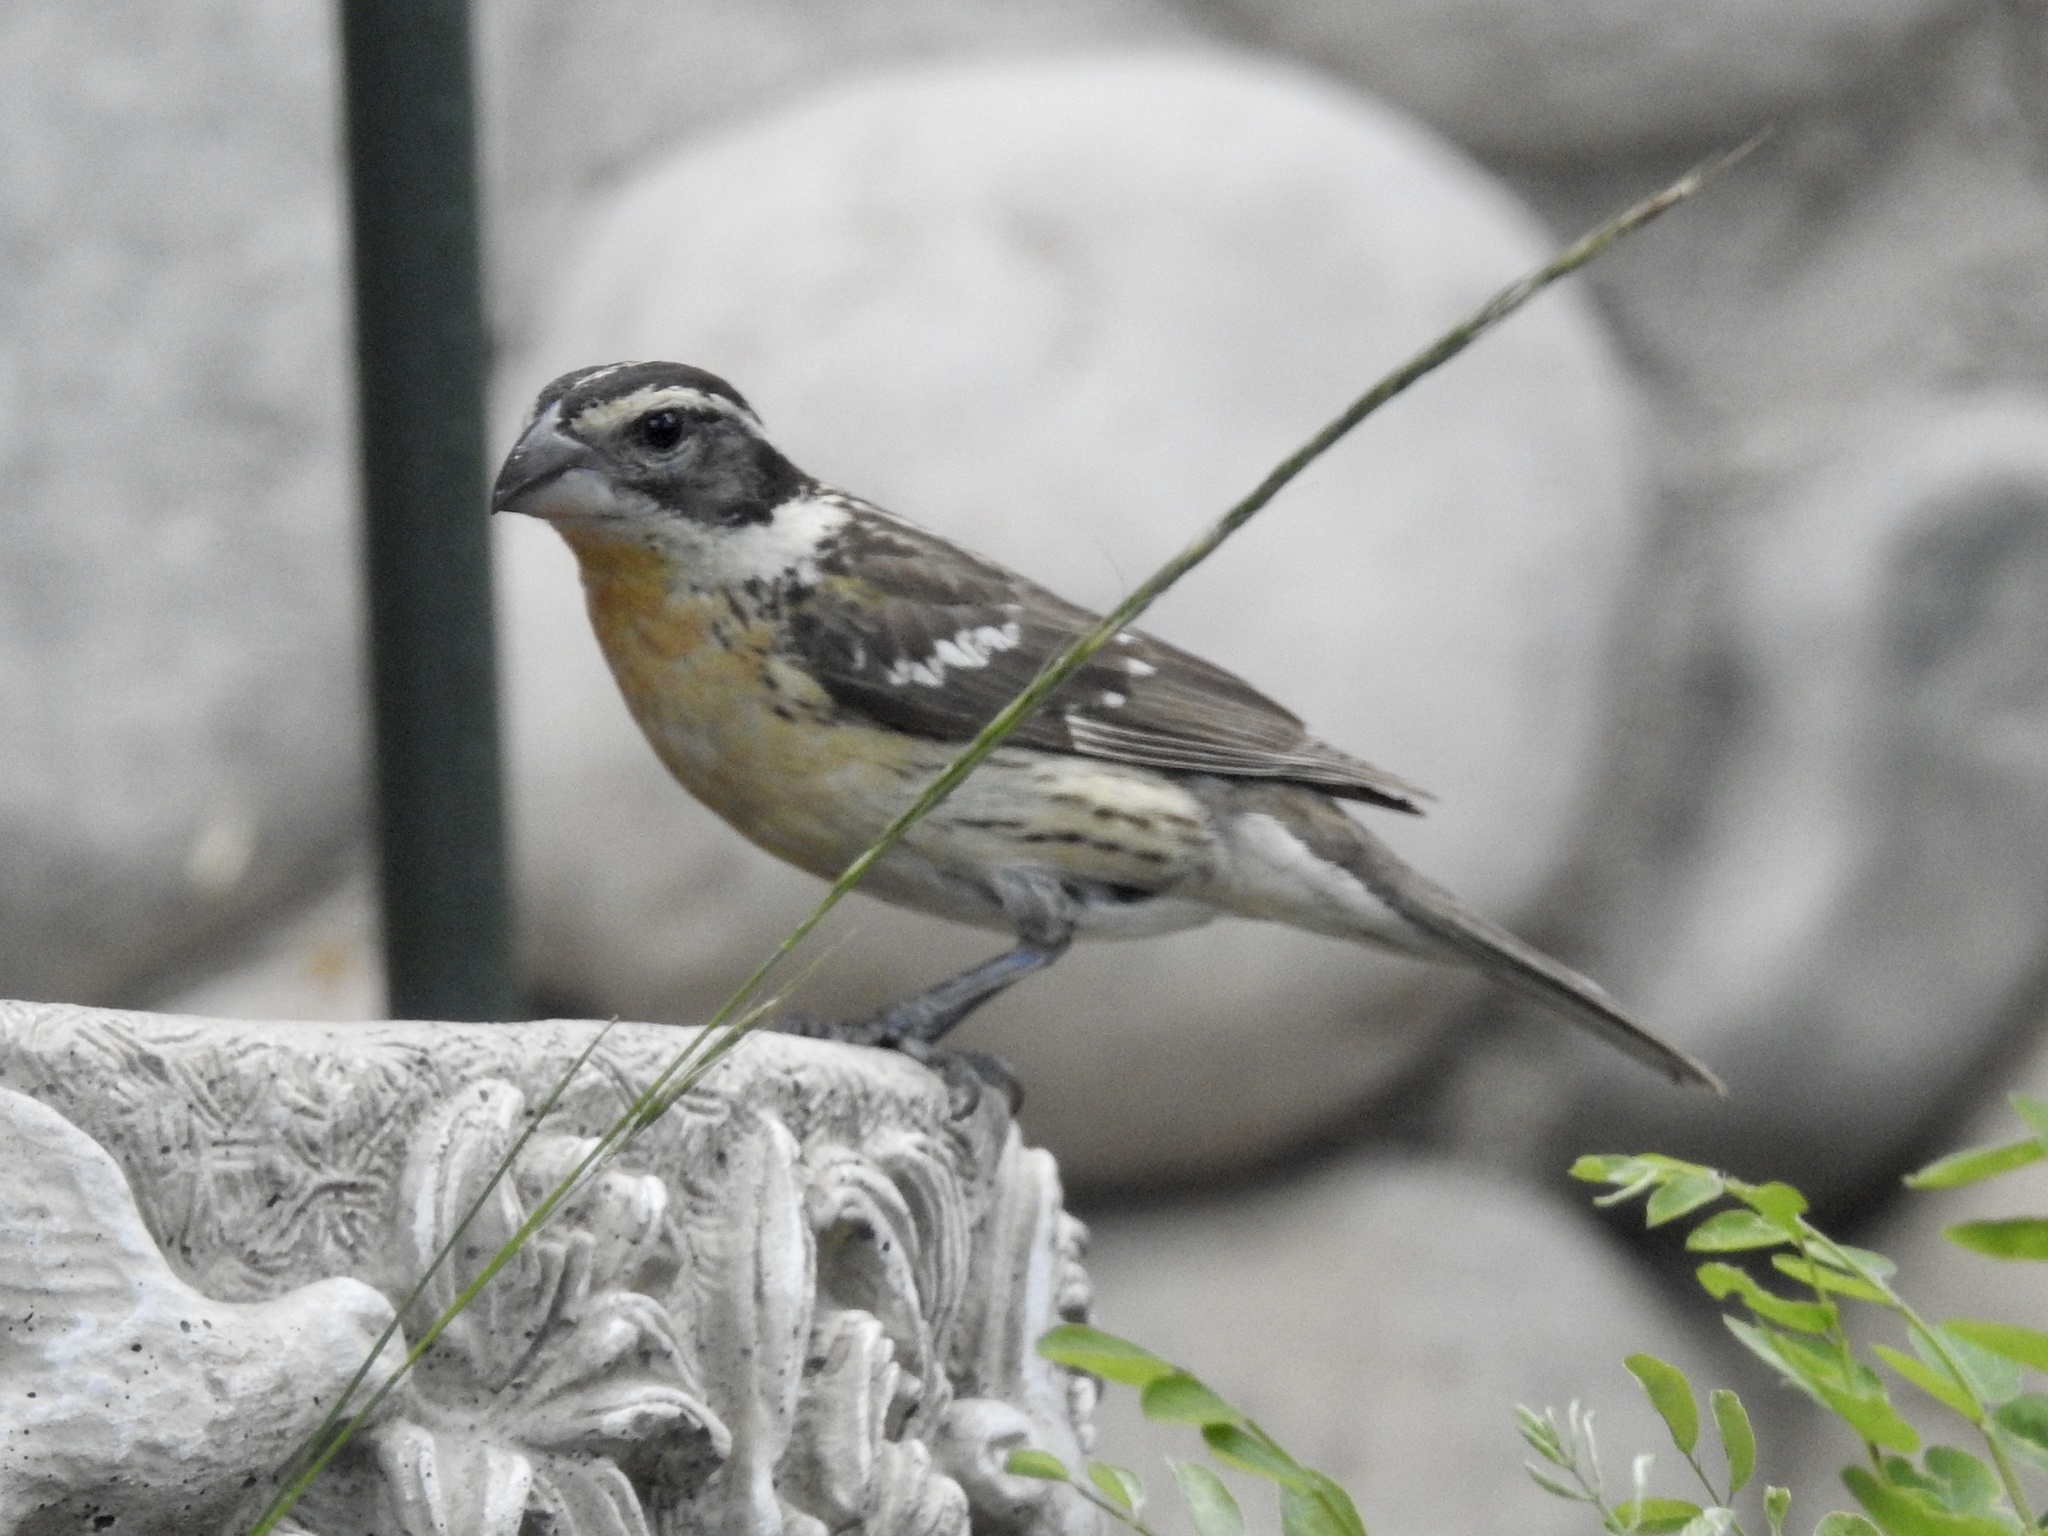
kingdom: Animalia
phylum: Chordata
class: Aves
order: Passeriformes
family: Cardinalidae
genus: Pheucticus
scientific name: Pheucticus melanocephalus
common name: Black-headed grosbeak
